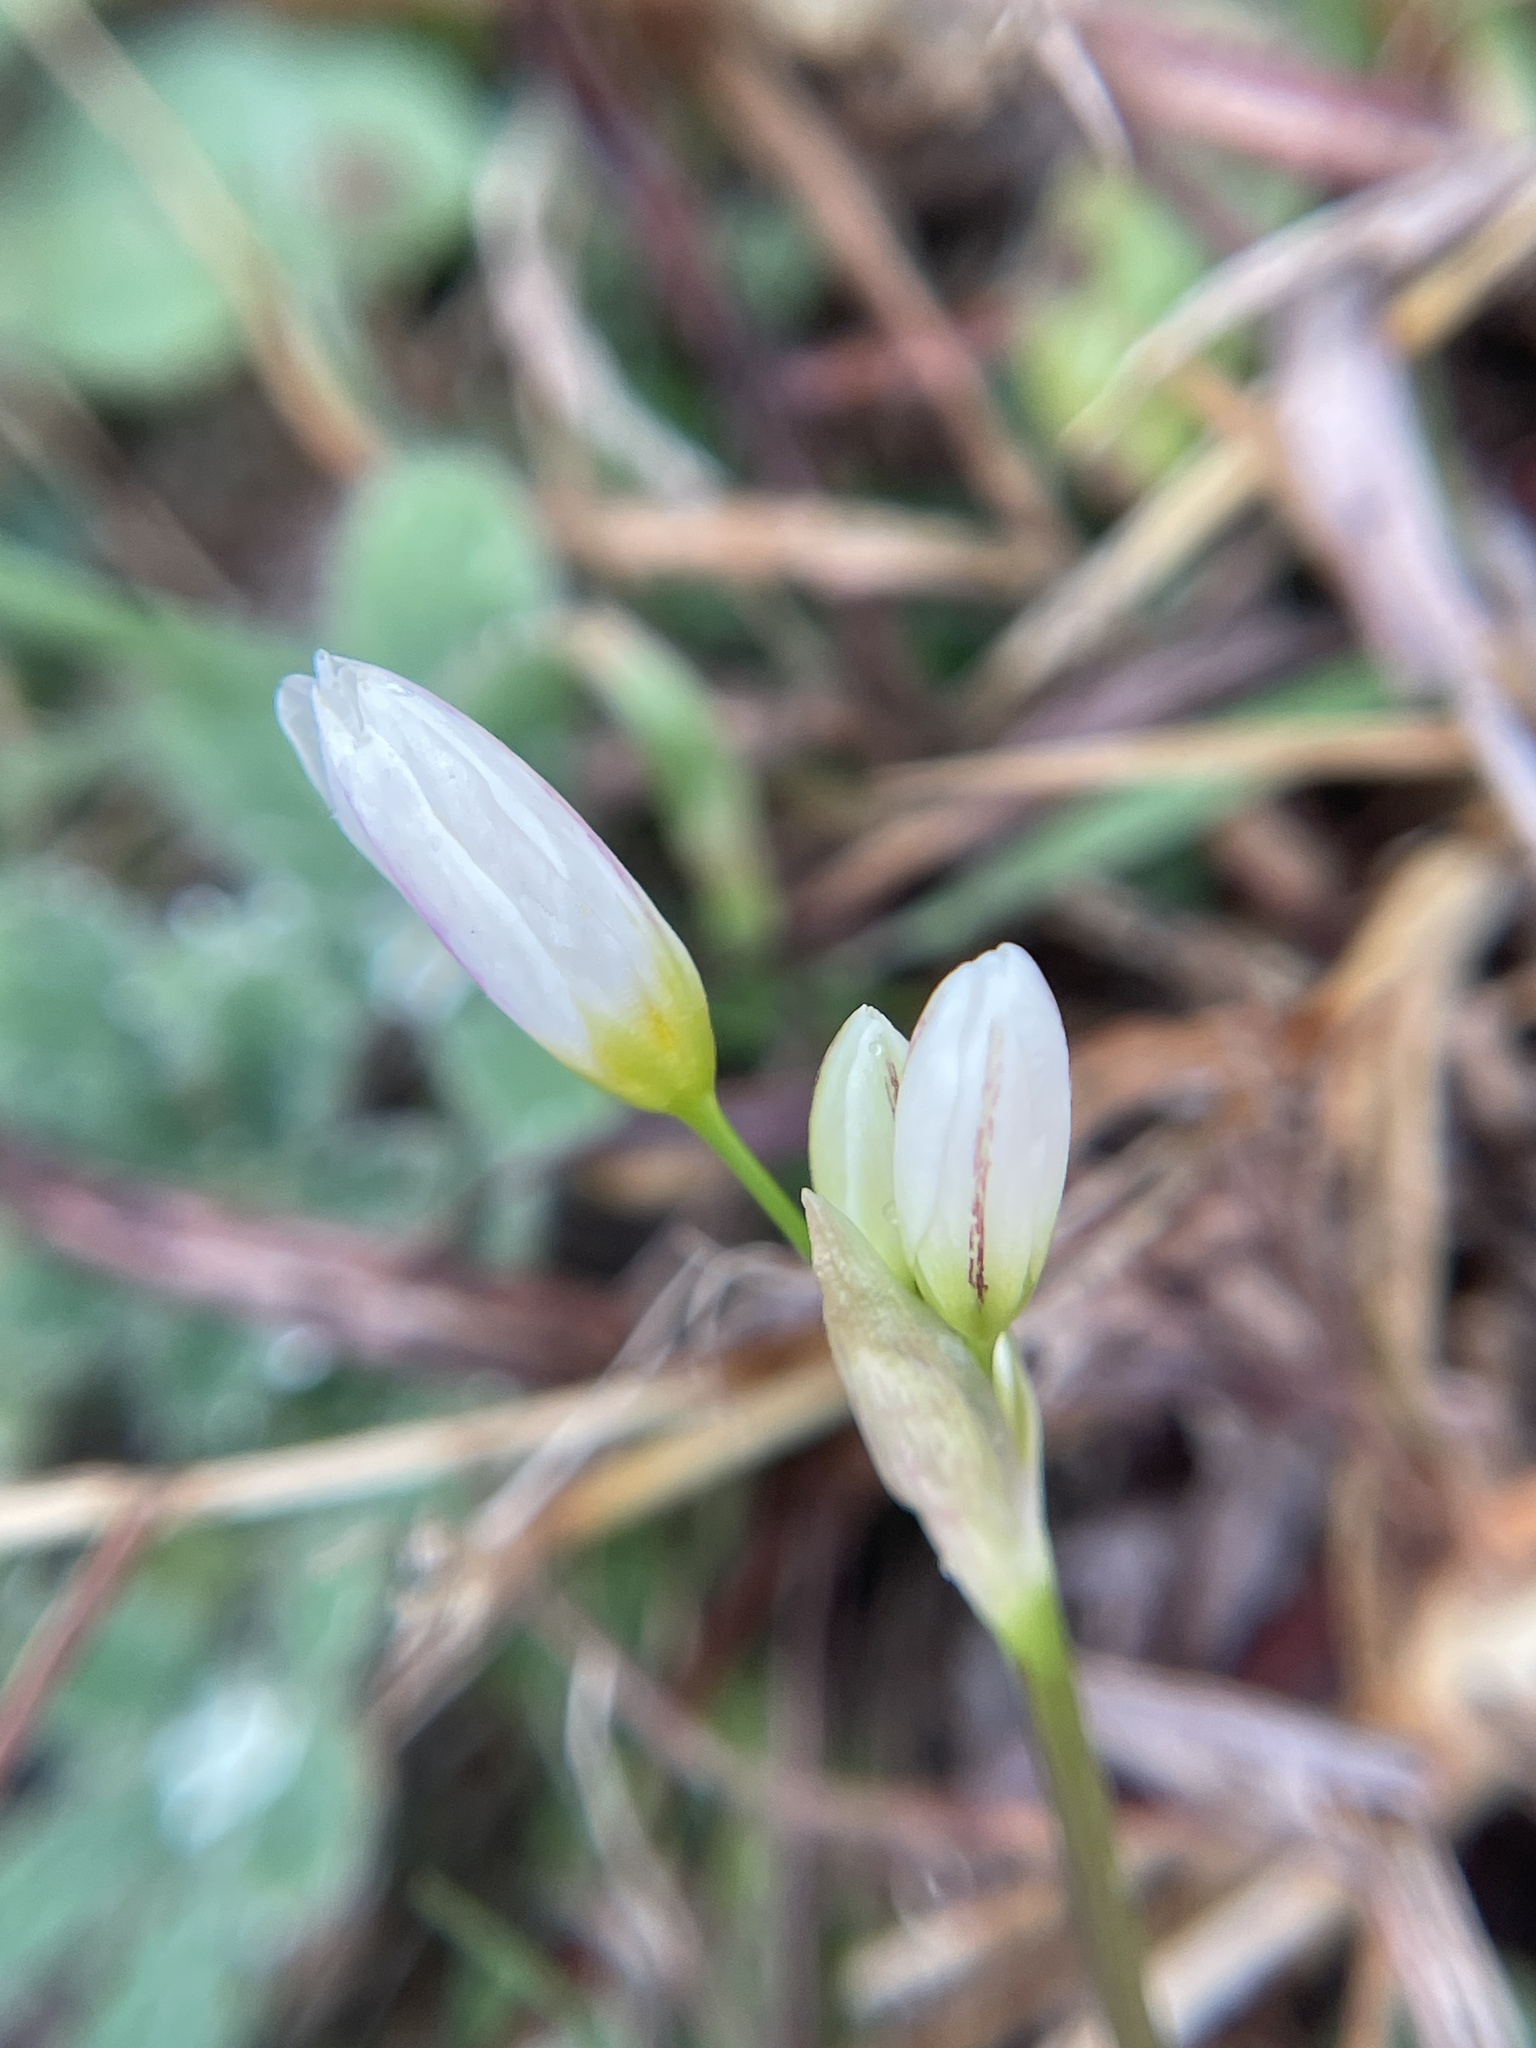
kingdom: Plantae
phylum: Tracheophyta
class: Liliopsida
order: Asparagales
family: Amaryllidaceae
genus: Nothoscordum
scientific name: Nothoscordum bivalve
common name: Crow-poison
